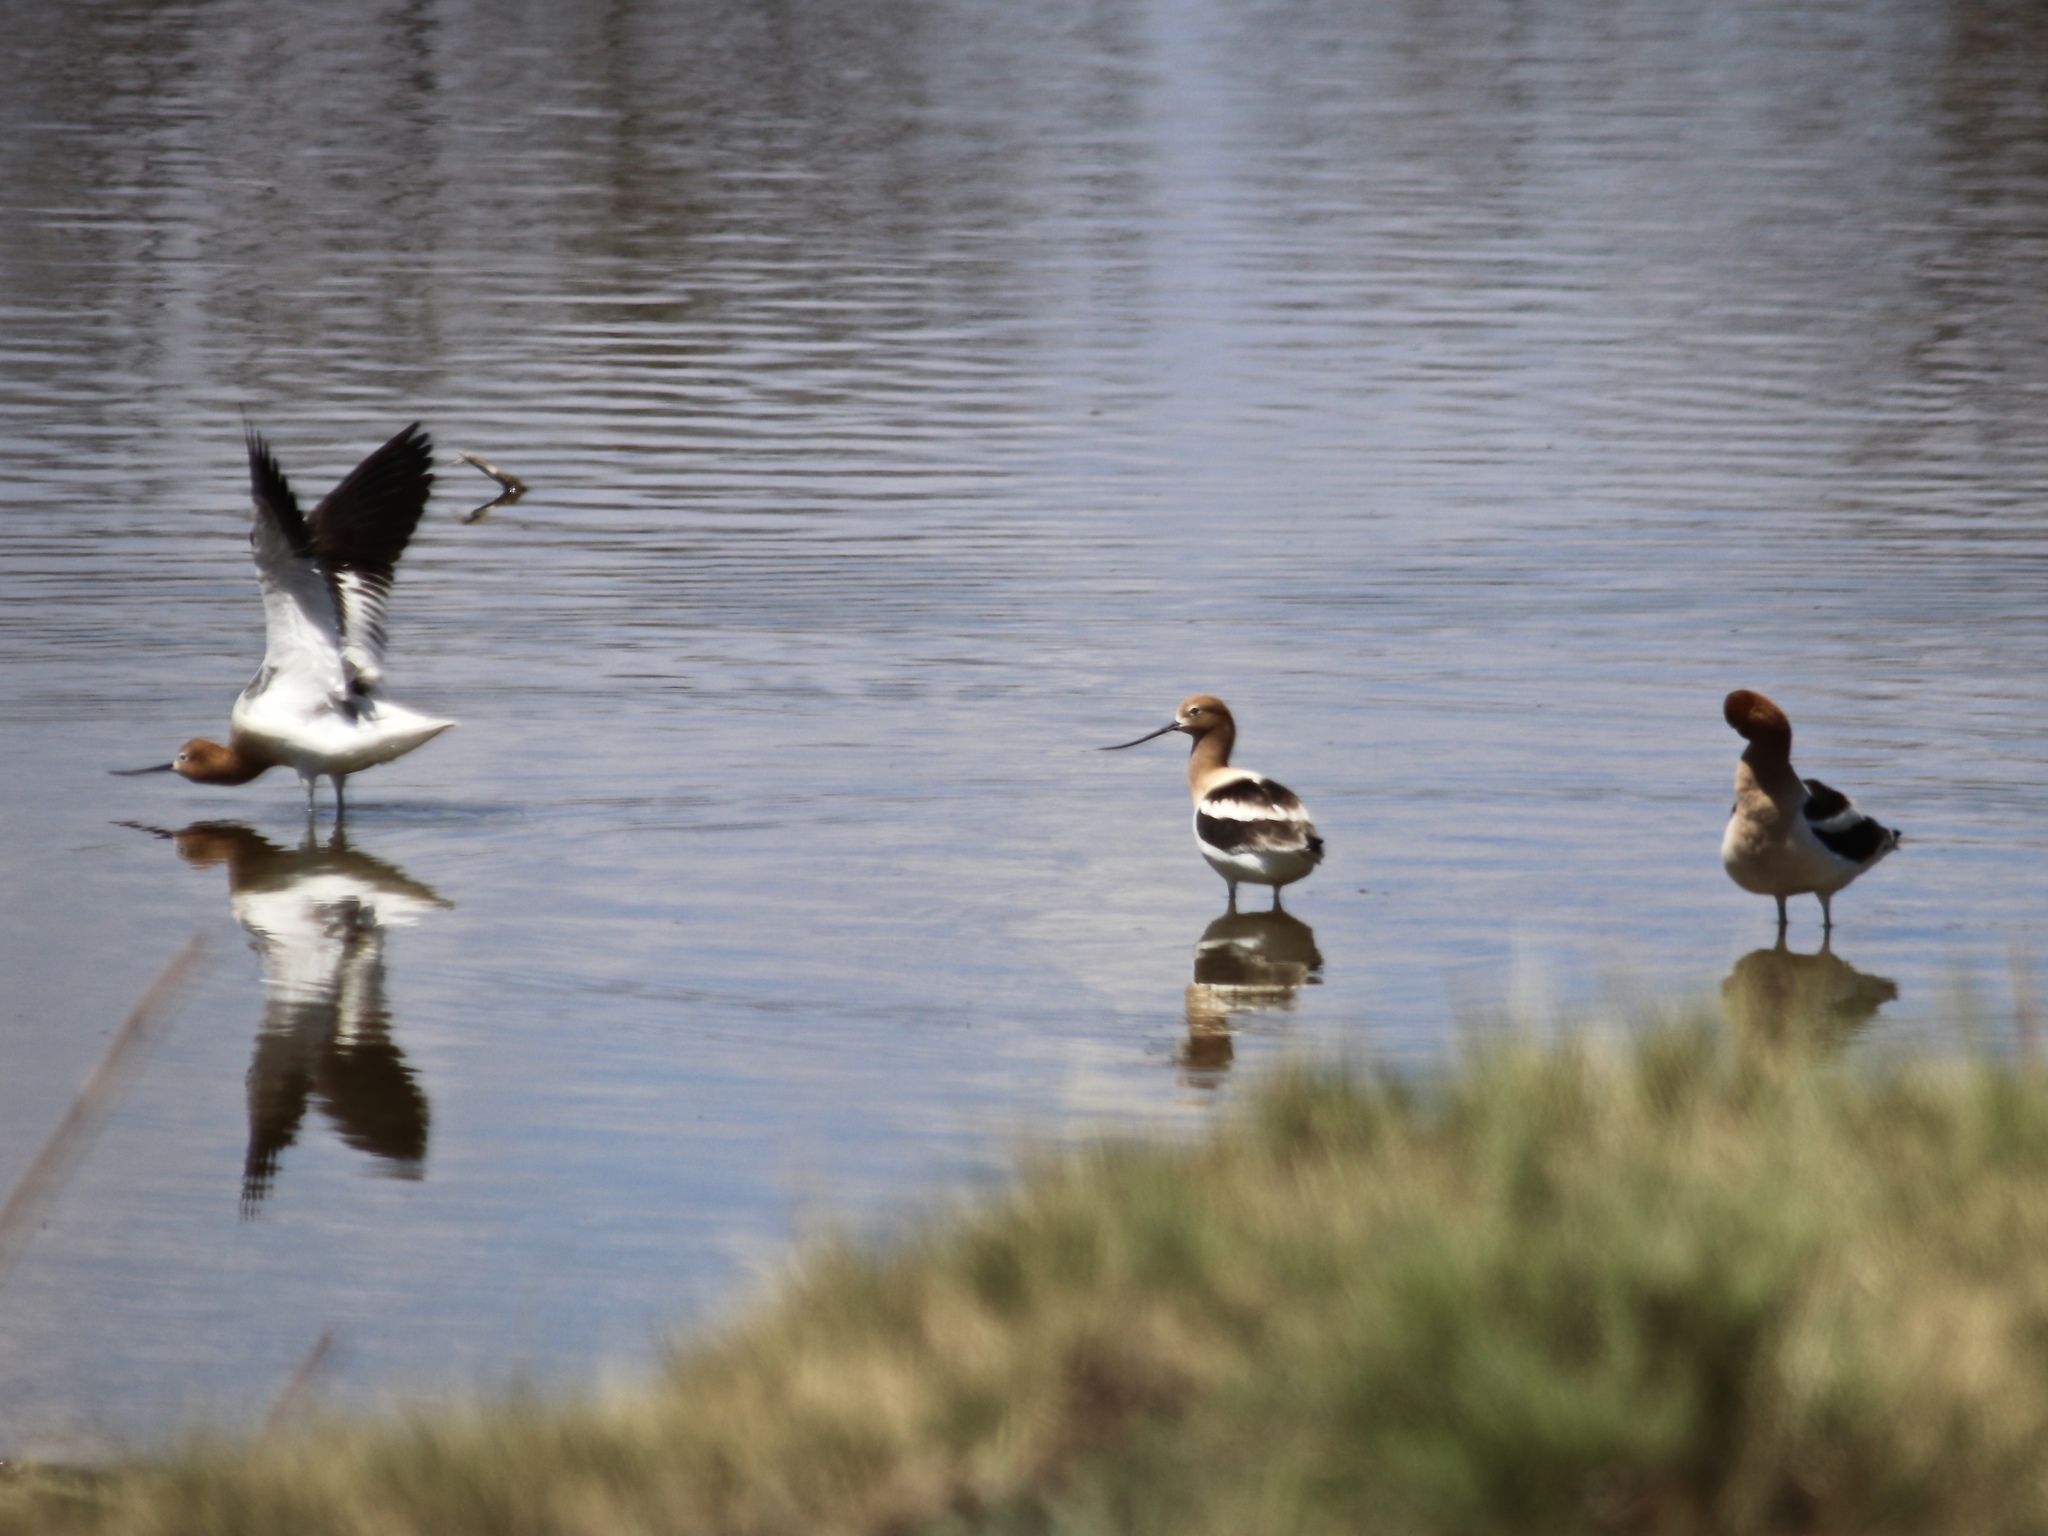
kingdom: Animalia
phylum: Chordata
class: Aves
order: Charadriiformes
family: Recurvirostridae
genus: Recurvirostra
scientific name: Recurvirostra americana
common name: American avocet
